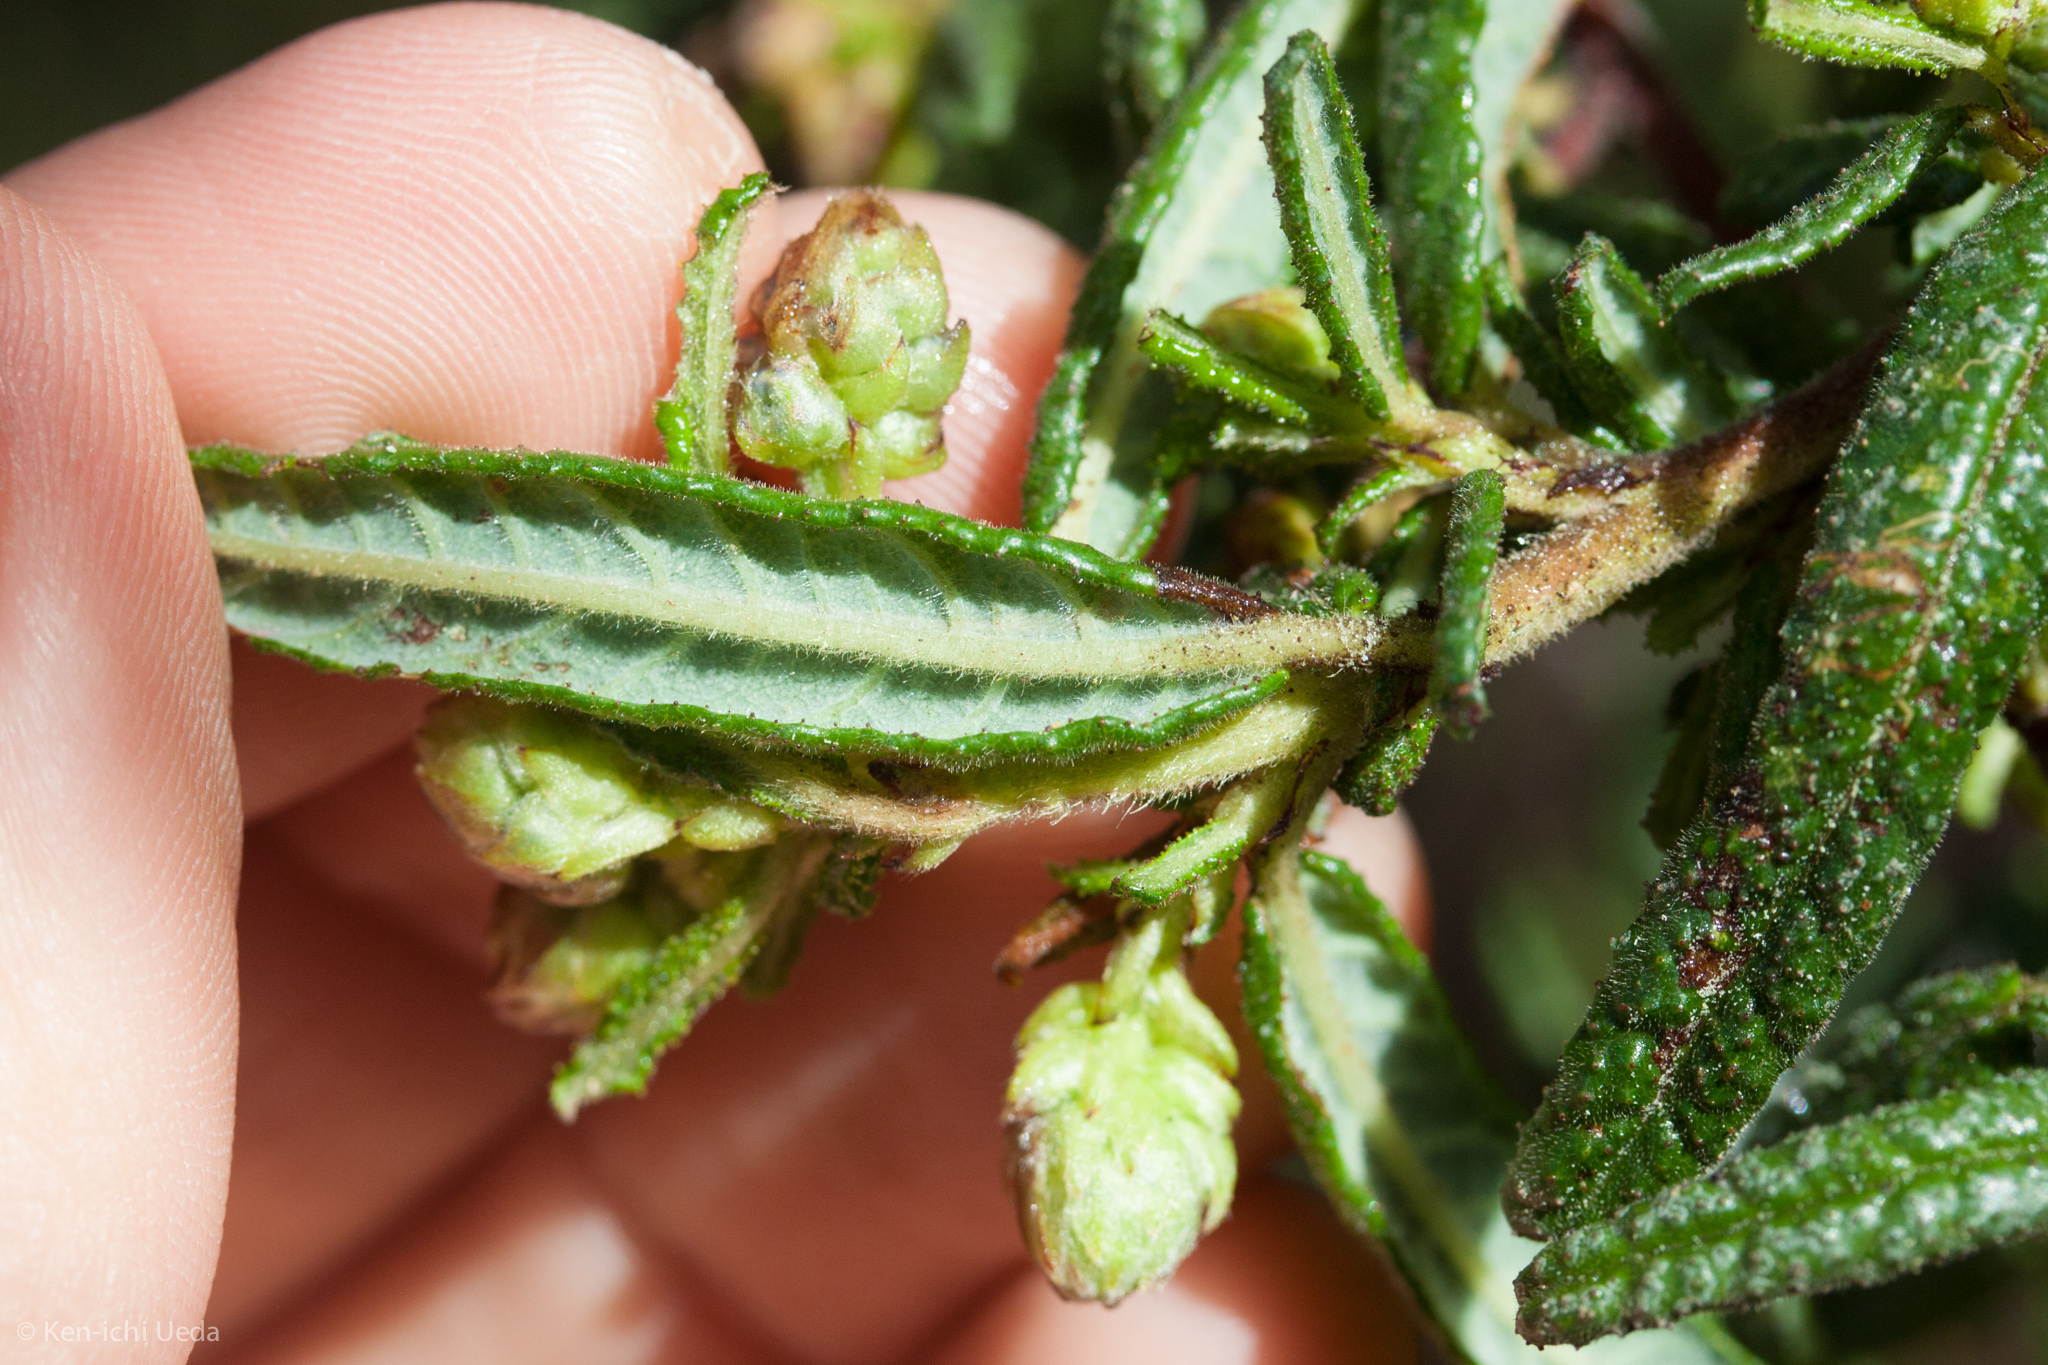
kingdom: Plantae
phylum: Tracheophyta
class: Magnoliopsida
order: Rosales
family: Rhamnaceae
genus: Ceanothus
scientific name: Ceanothus papillosus
